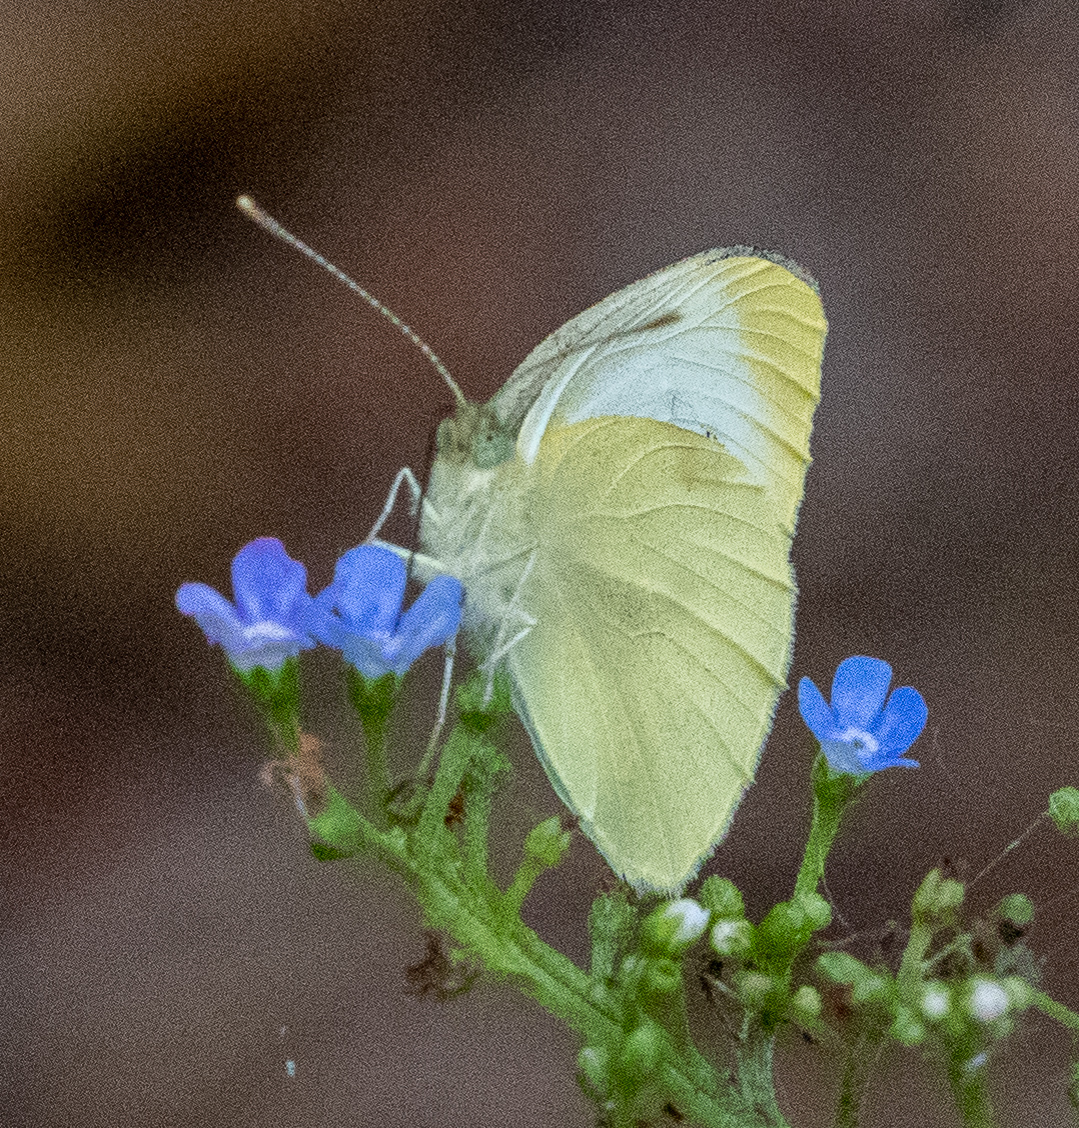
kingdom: Animalia
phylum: Arthropoda
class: Insecta
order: Lepidoptera
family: Pieridae
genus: Pieris
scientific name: Pieris rapae
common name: Small white
